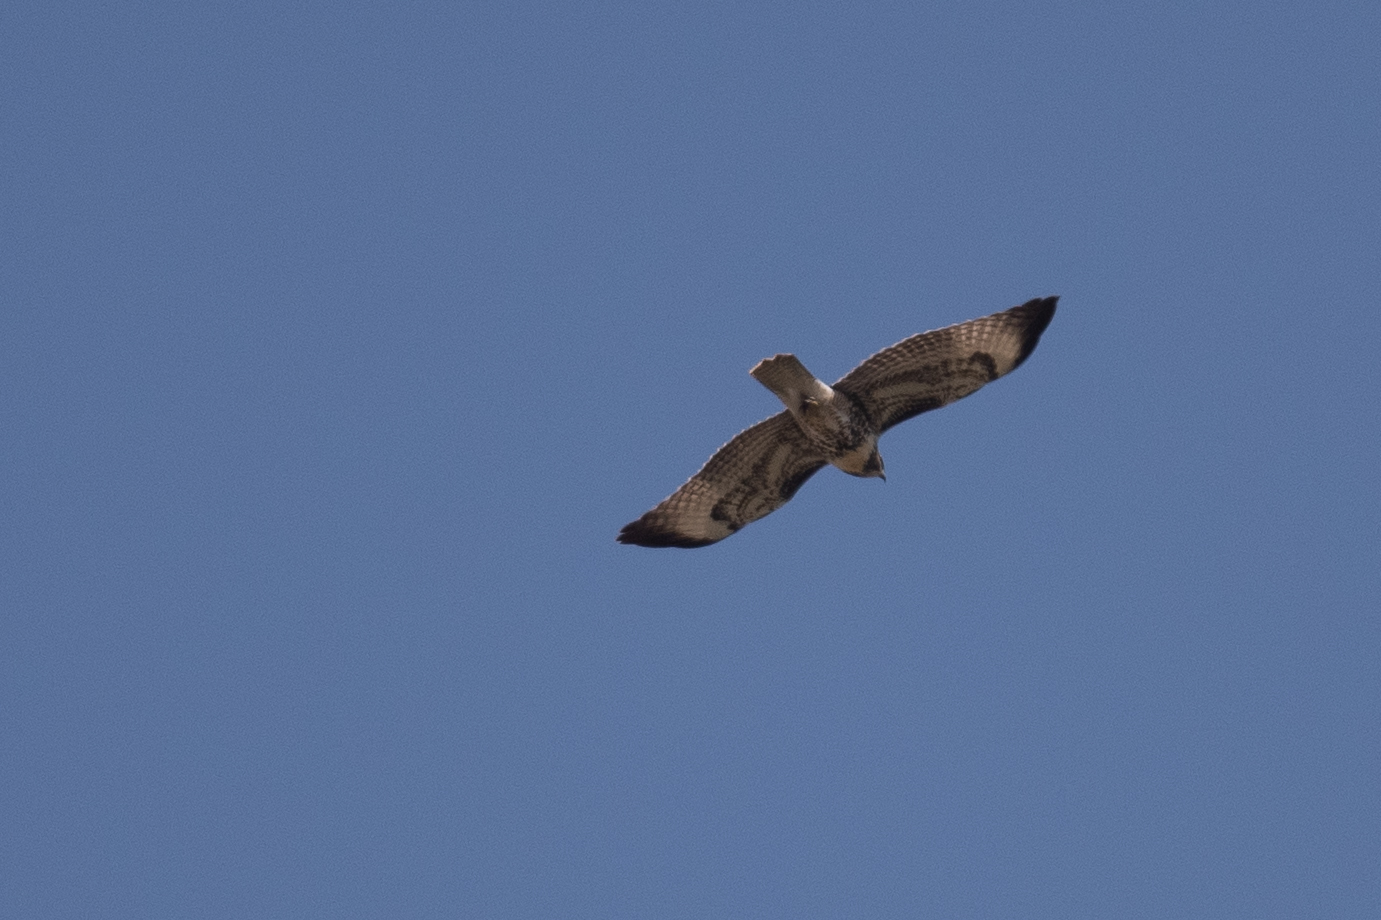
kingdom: Animalia
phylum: Chordata
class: Aves
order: Accipitriformes
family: Accipitridae
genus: Buteo
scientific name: Buteo jamaicensis
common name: Red-tailed hawk
